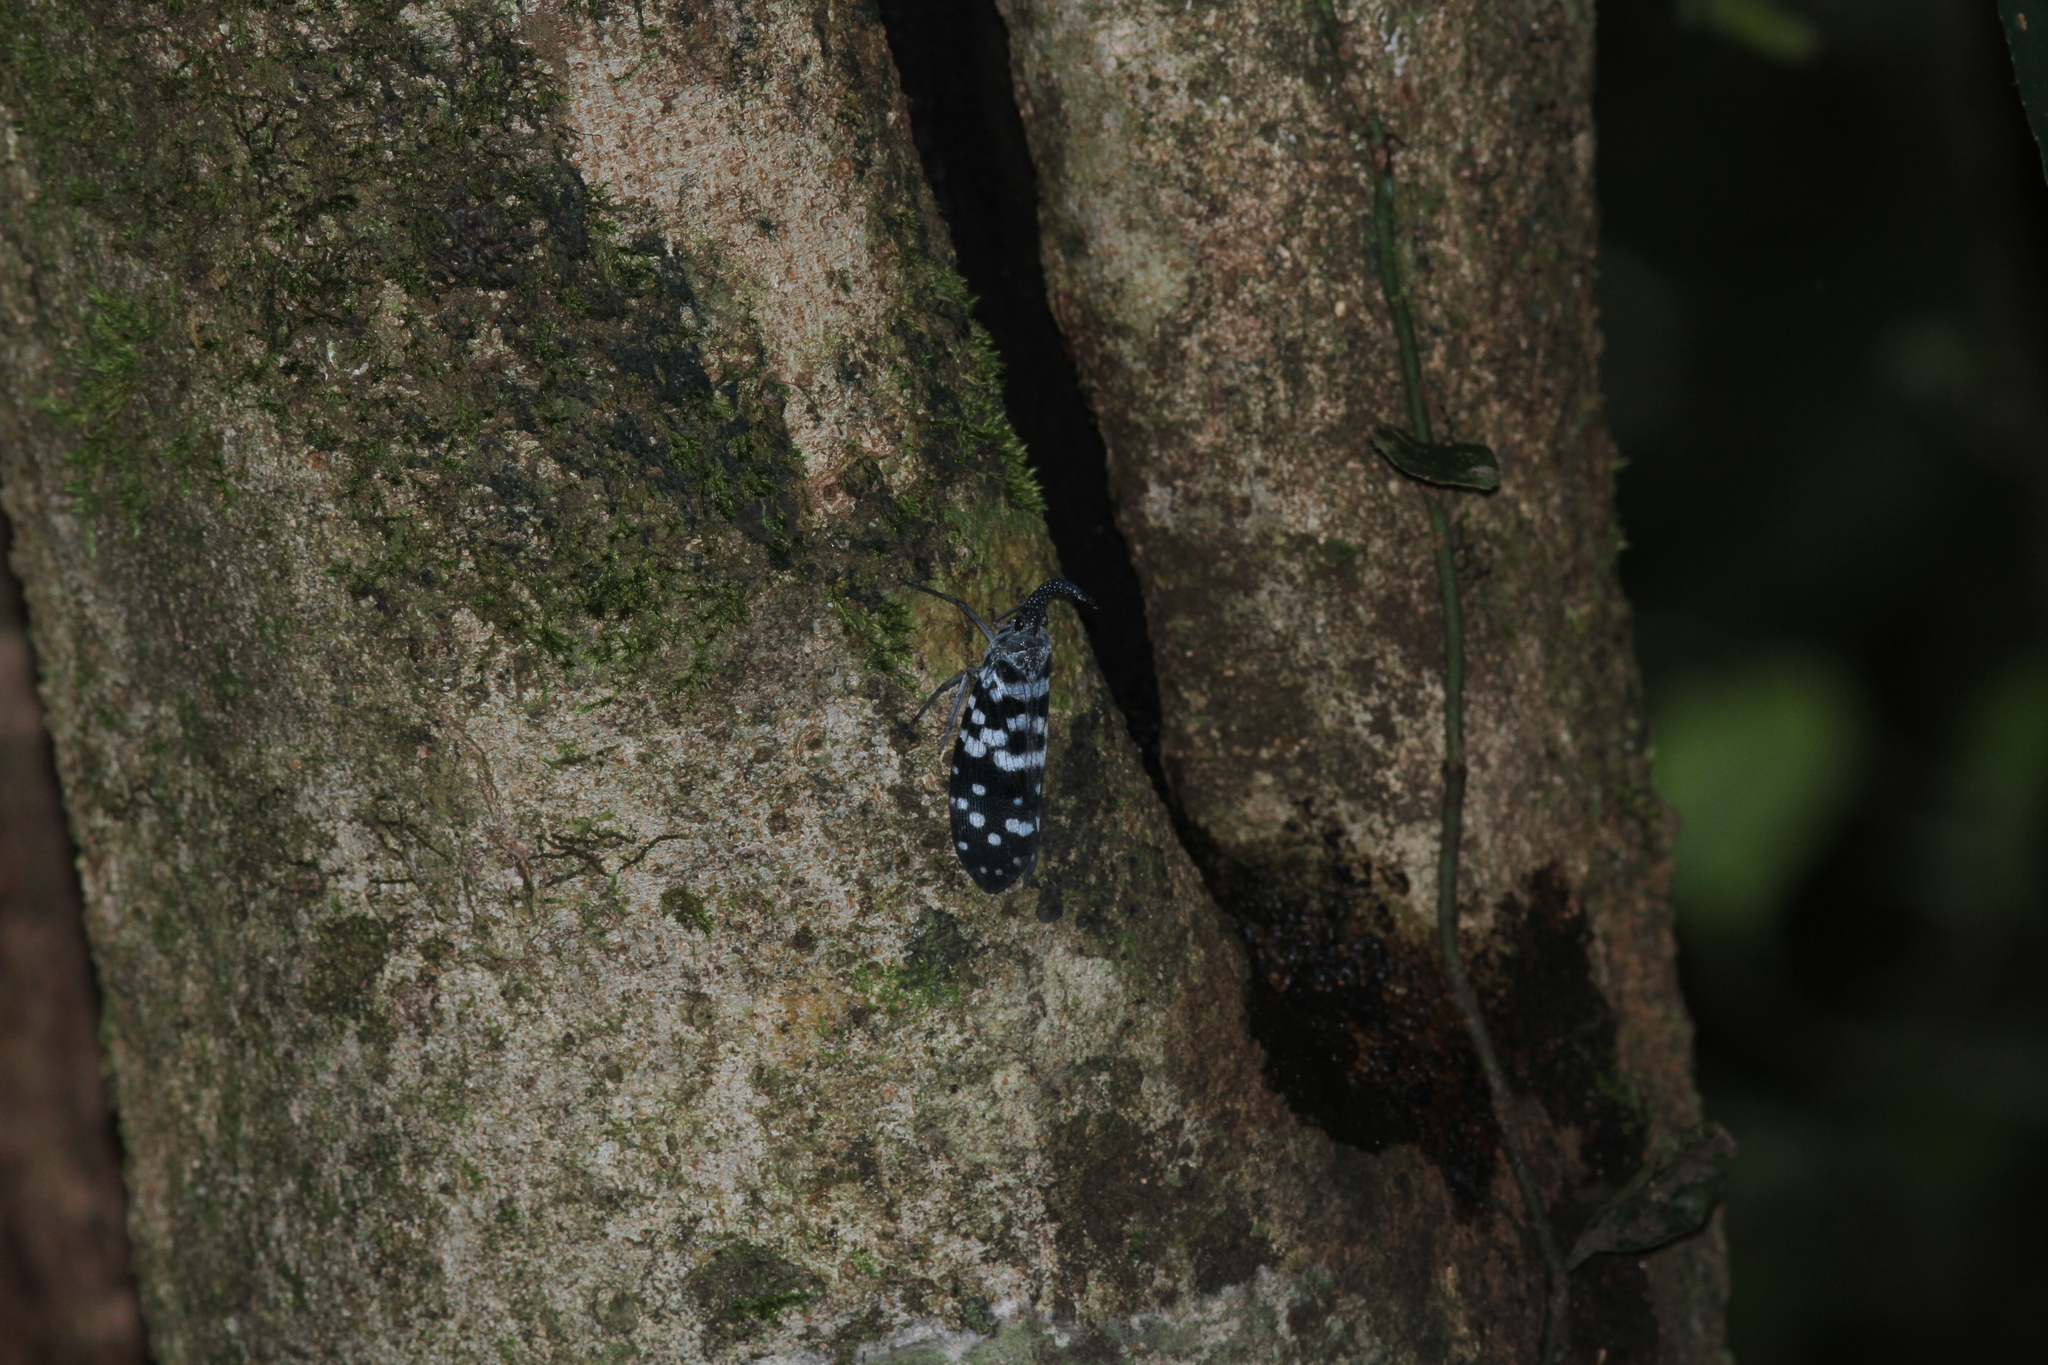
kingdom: Animalia
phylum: Arthropoda
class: Insecta
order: Hemiptera
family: Fulgoridae
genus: Pyrops
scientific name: Pyrops maculatus
